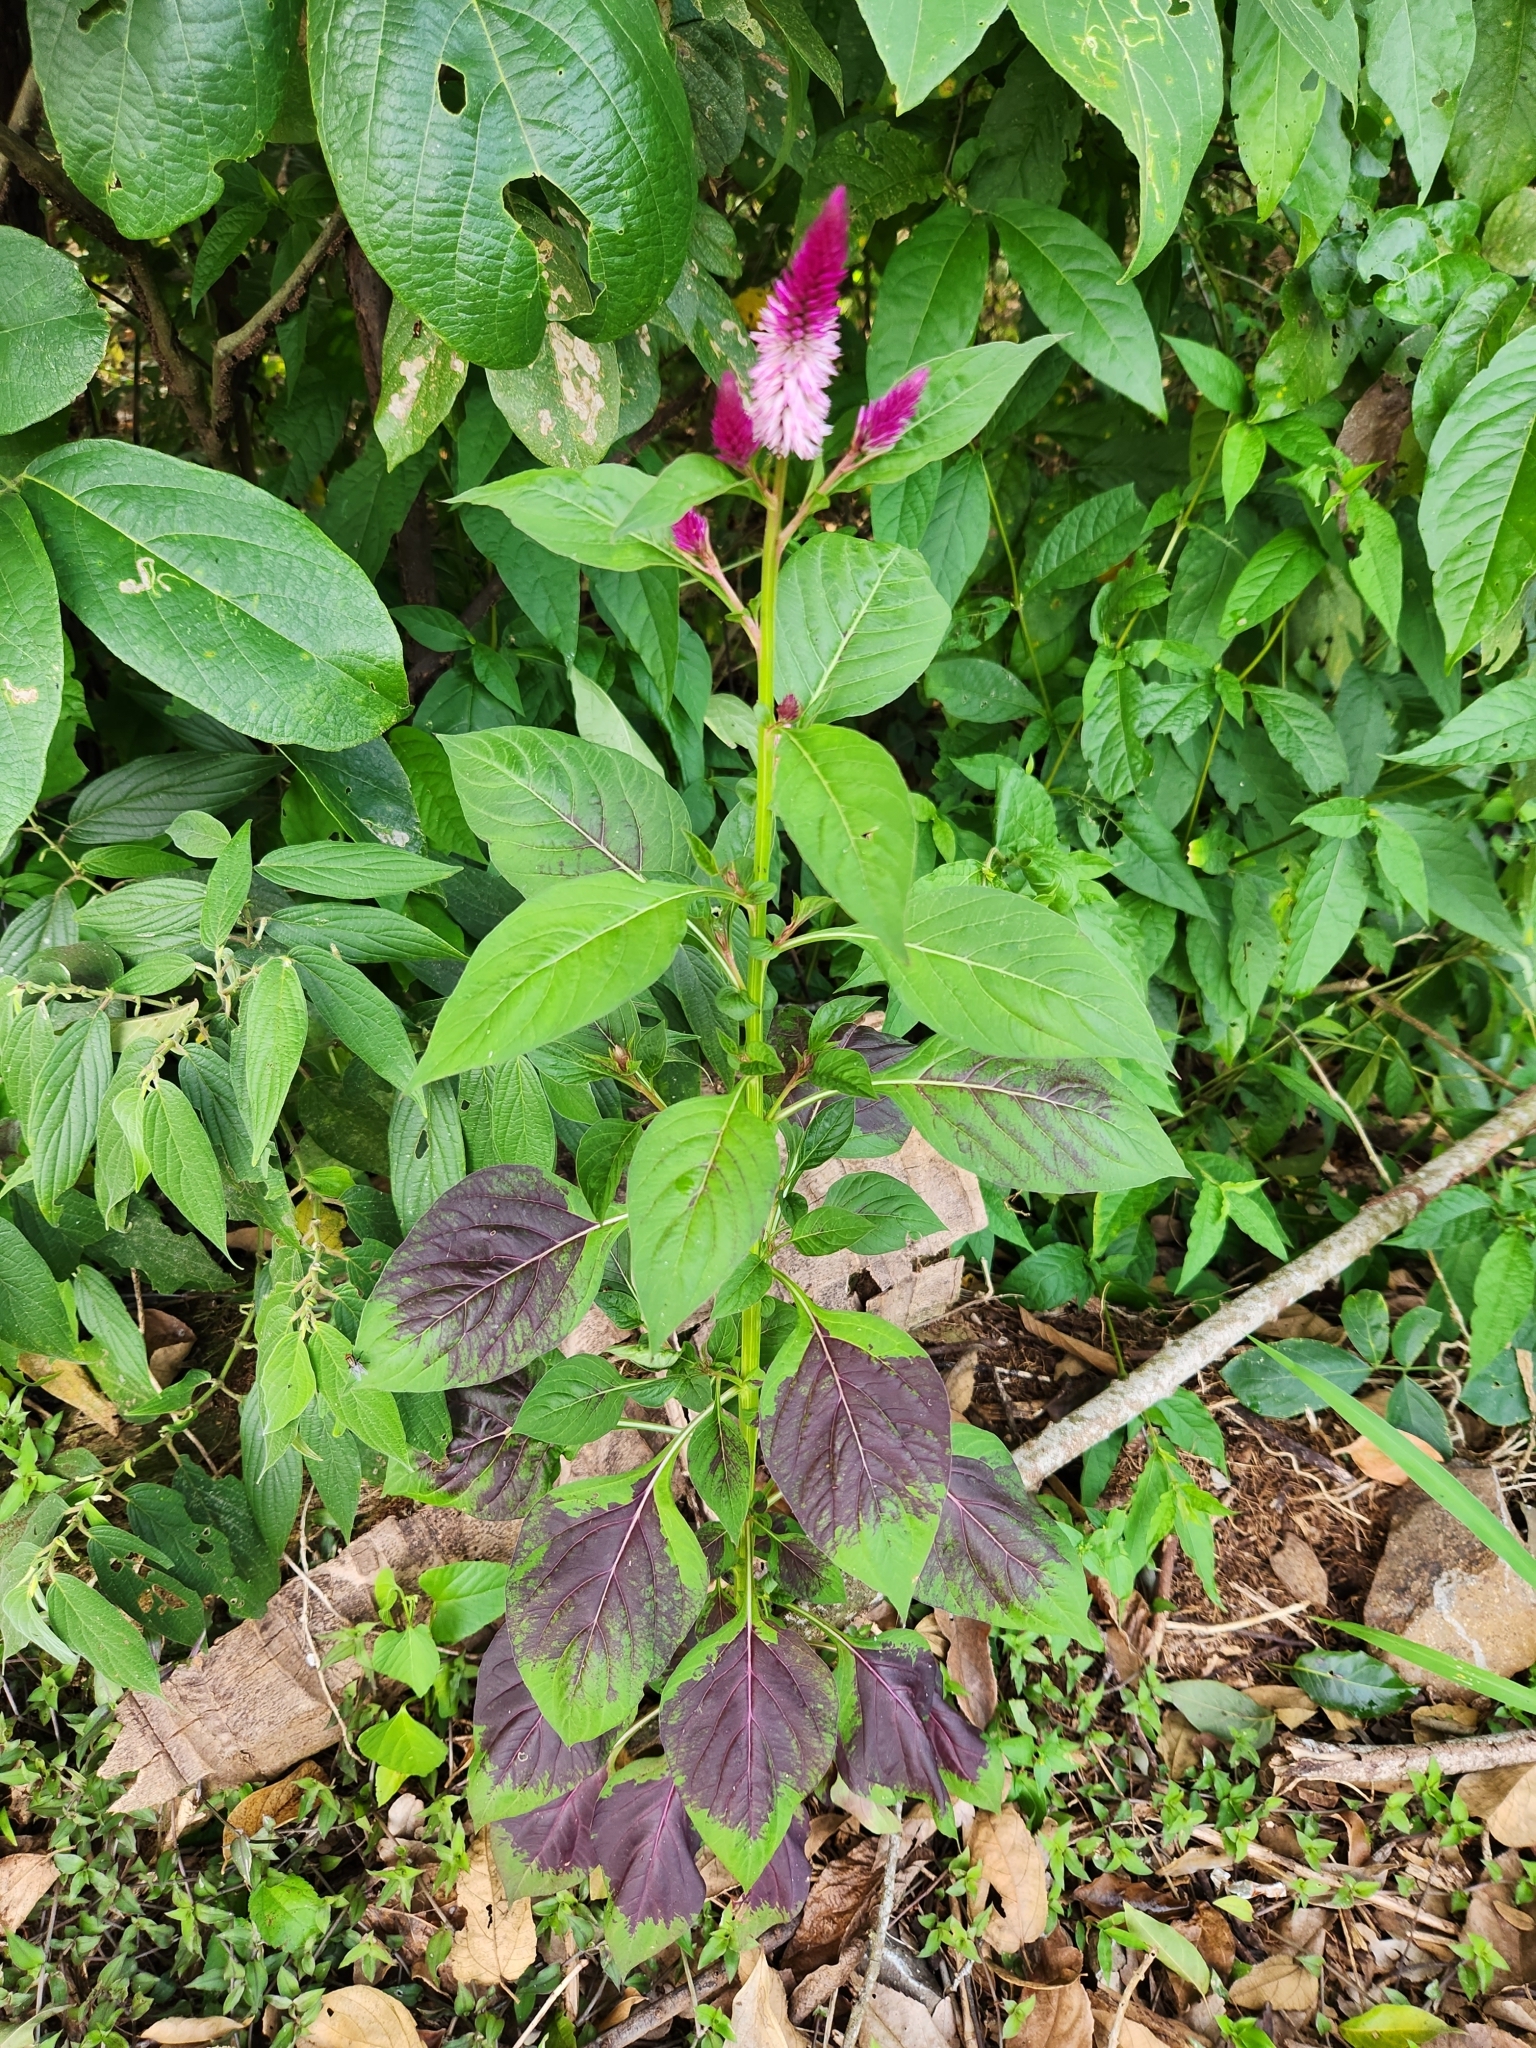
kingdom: Plantae
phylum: Tracheophyta
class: Magnoliopsida
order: Caryophyllales
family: Amaranthaceae
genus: Celosia
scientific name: Celosia argentea
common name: Feather cockscomb
